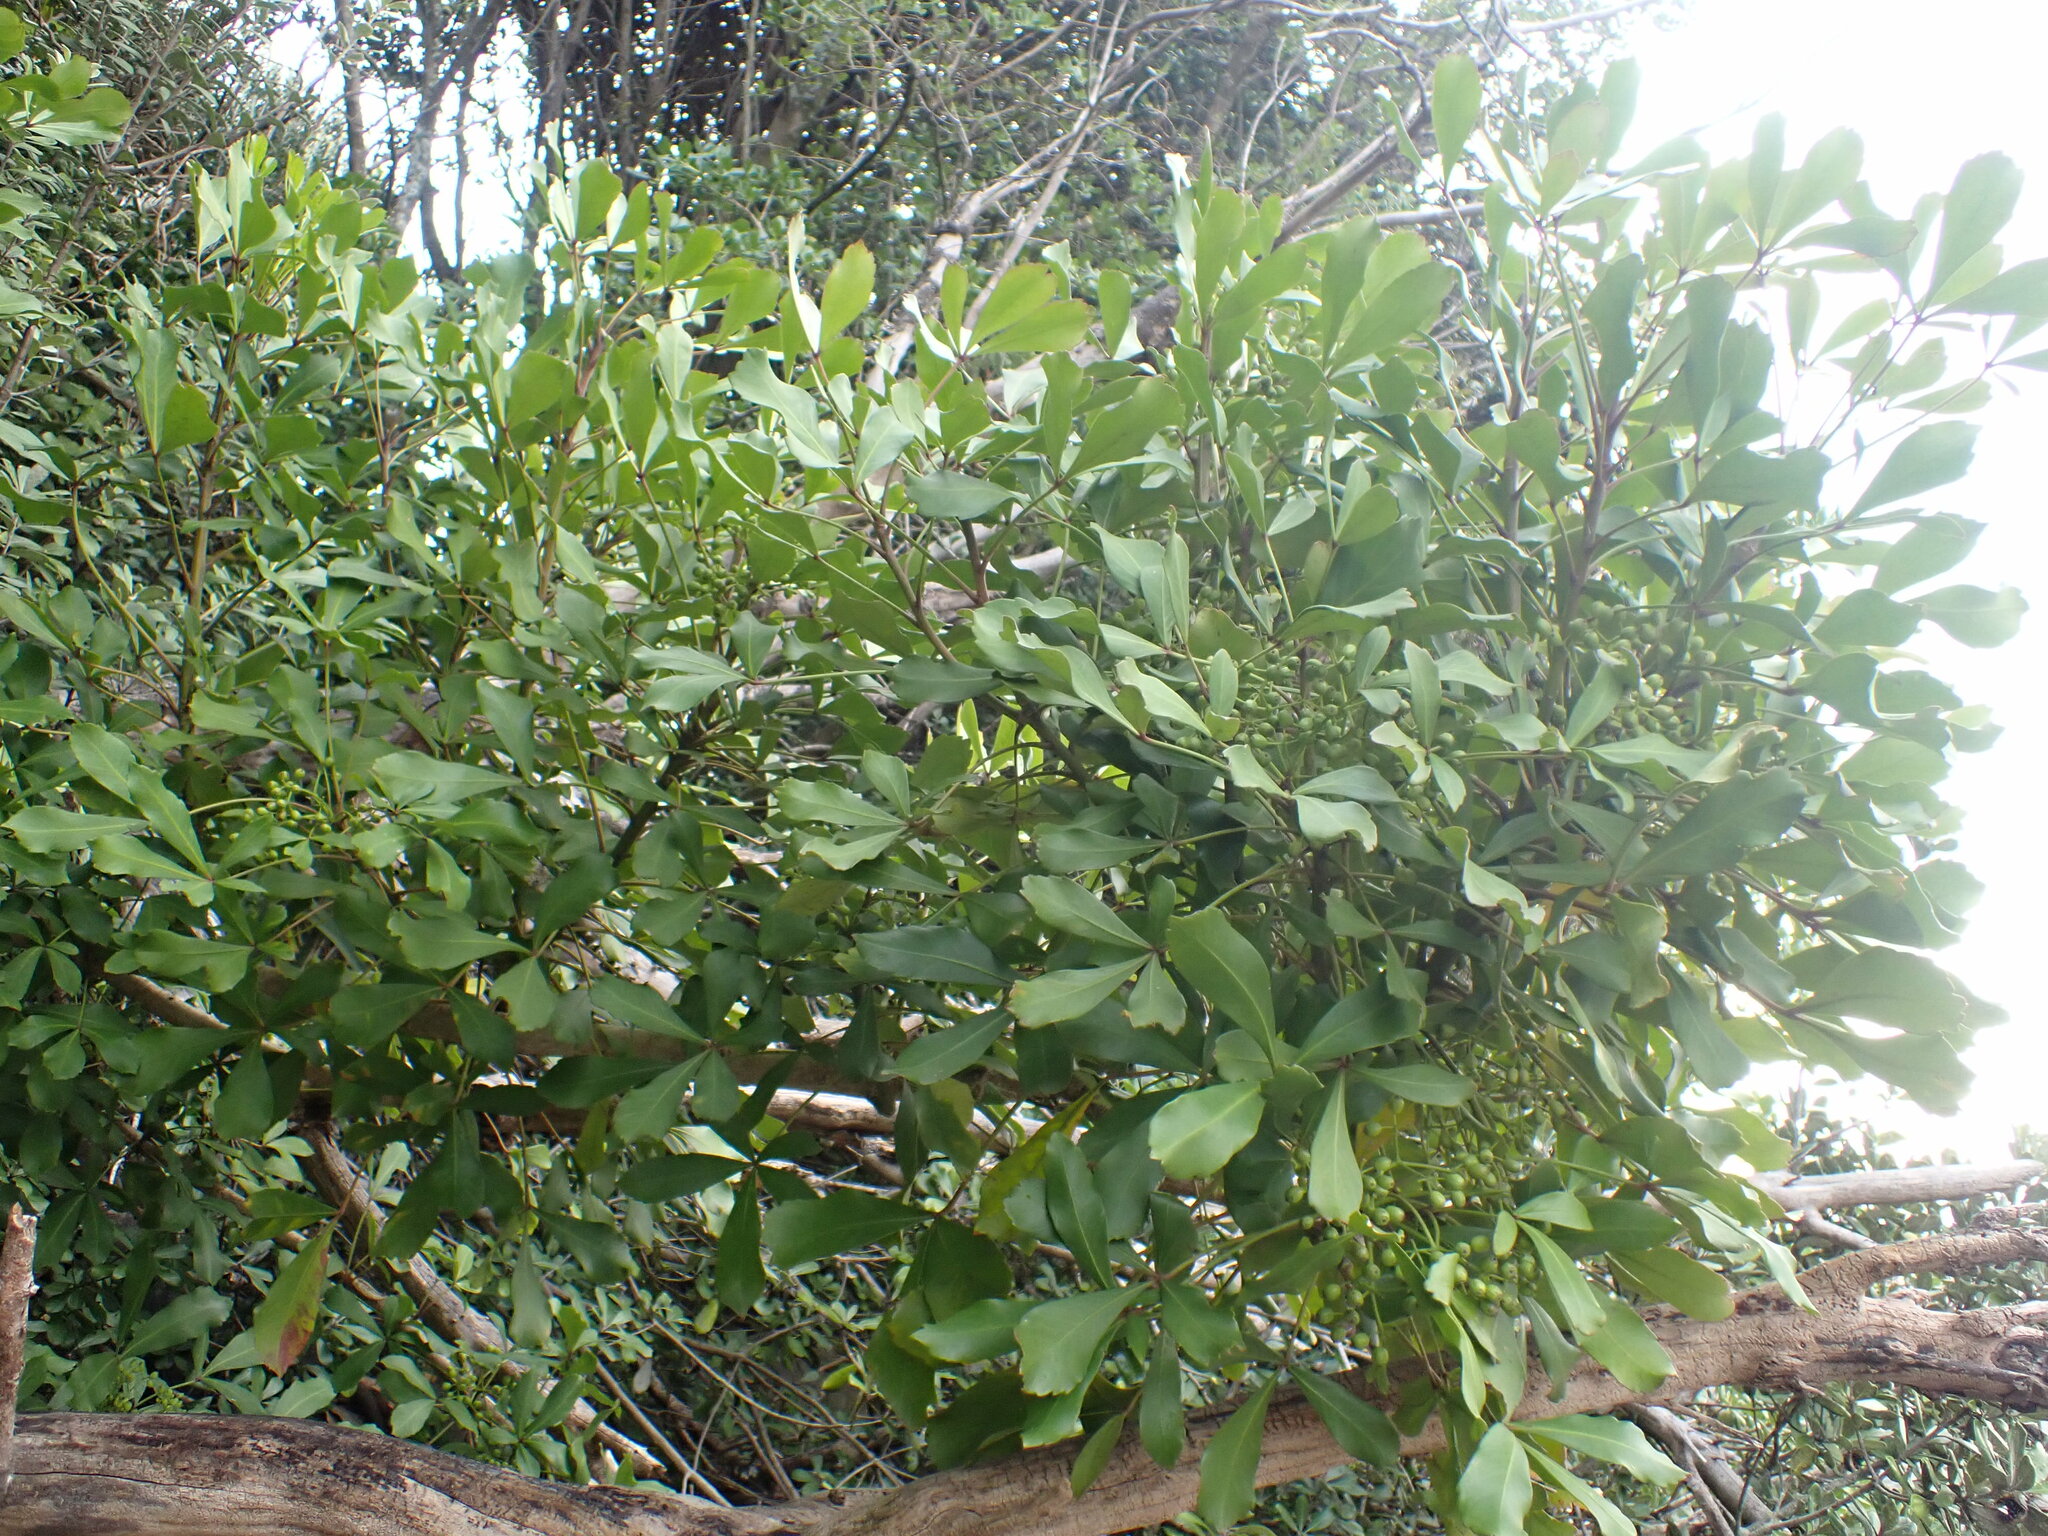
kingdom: Plantae
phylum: Tracheophyta
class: Magnoliopsida
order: Apiales
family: Araliaceae
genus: Pseudopanax
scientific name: Pseudopanax
